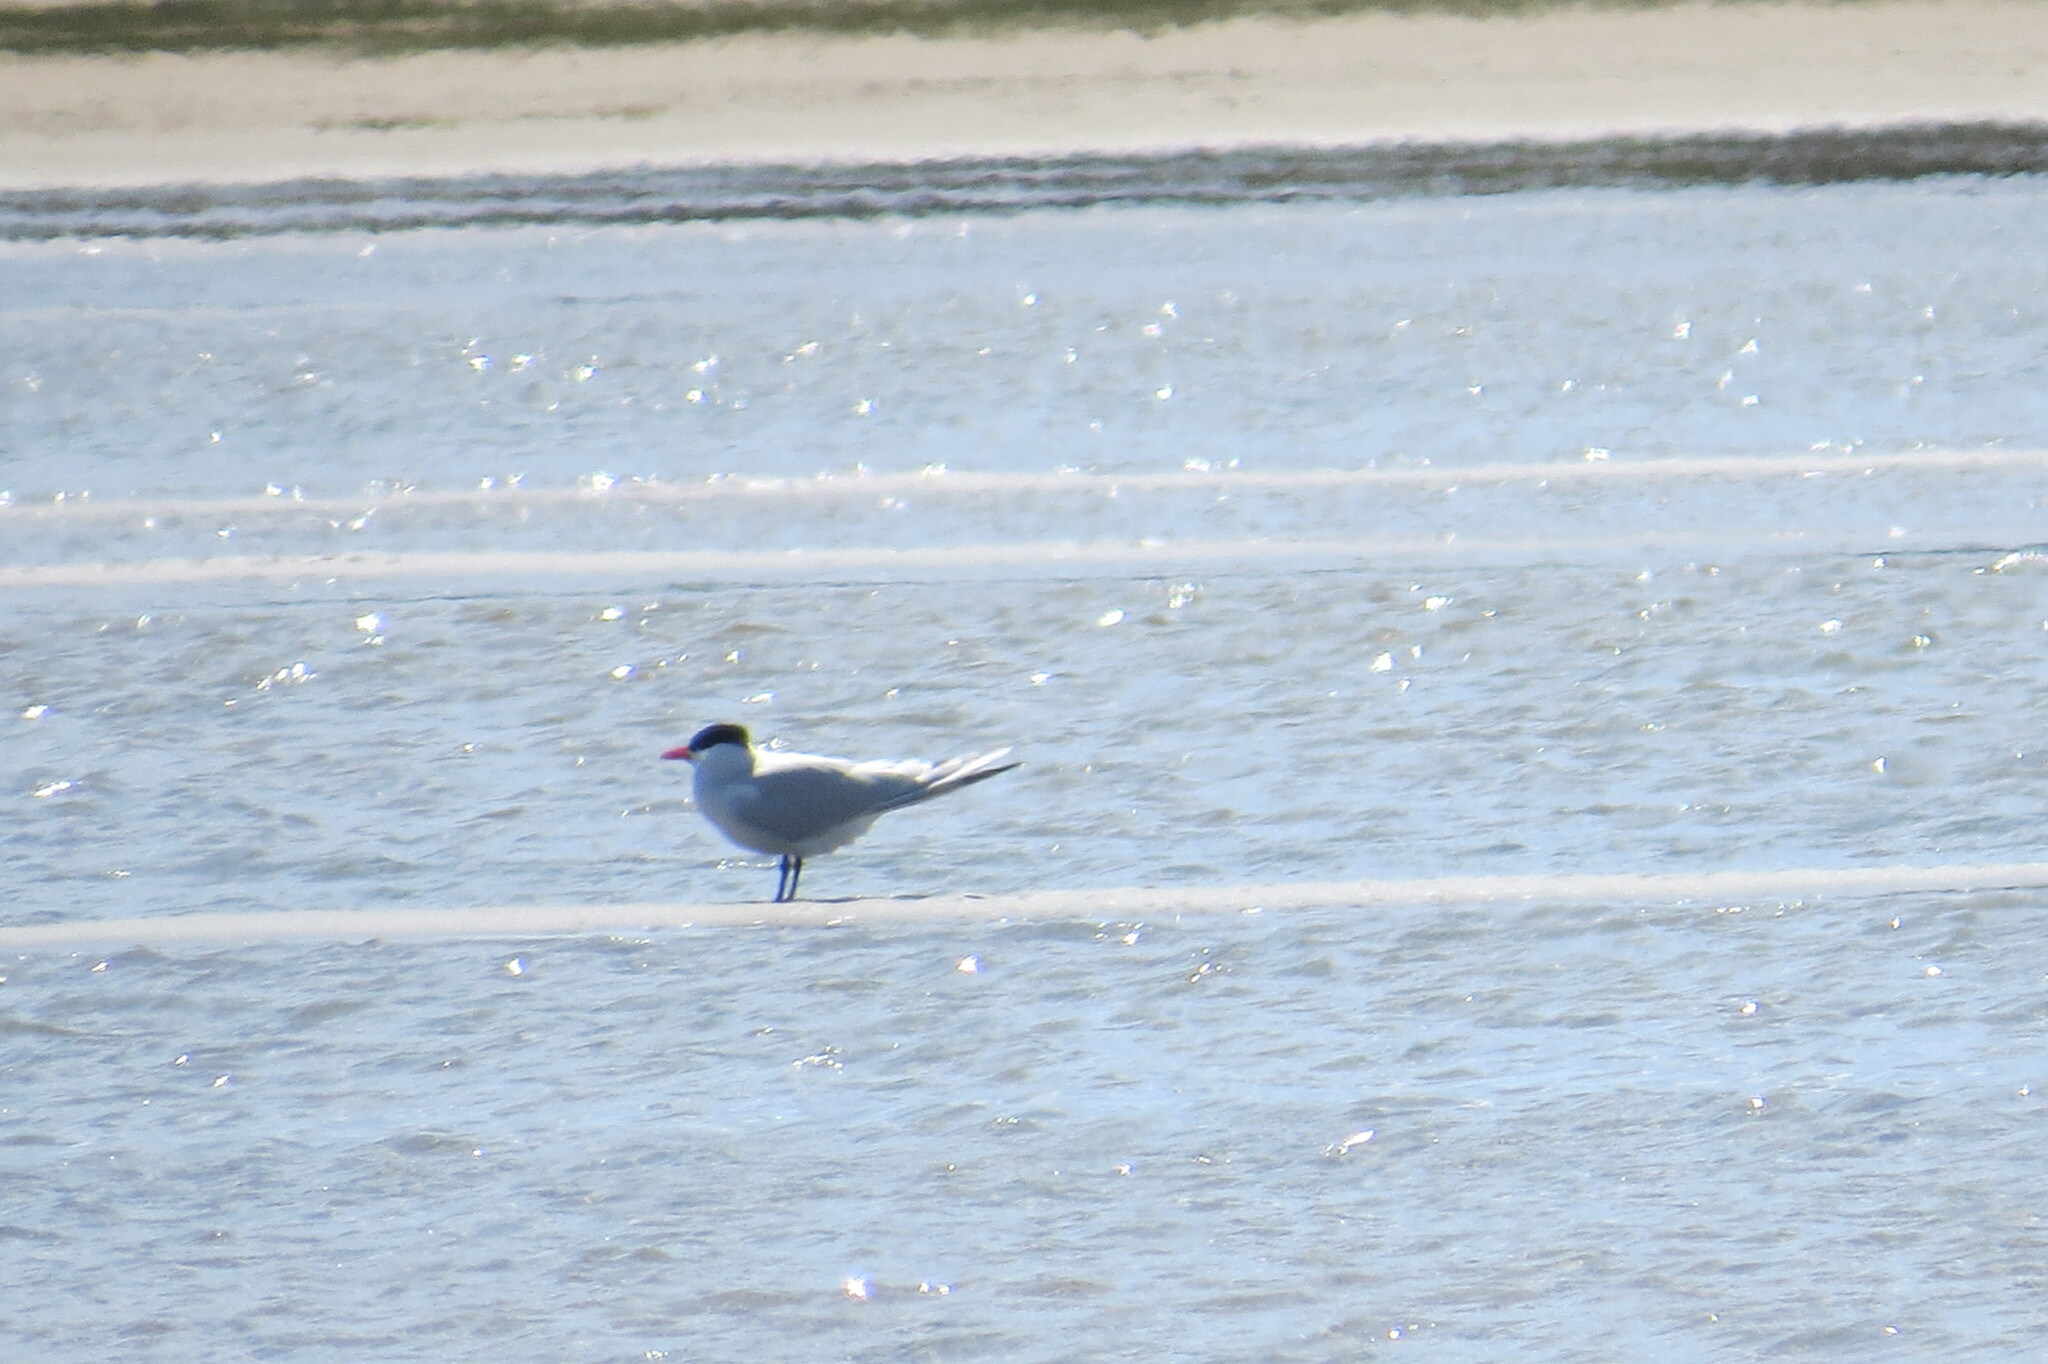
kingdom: Animalia
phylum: Chordata
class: Aves
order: Charadriiformes
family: Laridae
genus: Hydroprogne
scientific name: Hydroprogne caspia
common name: Caspian tern
